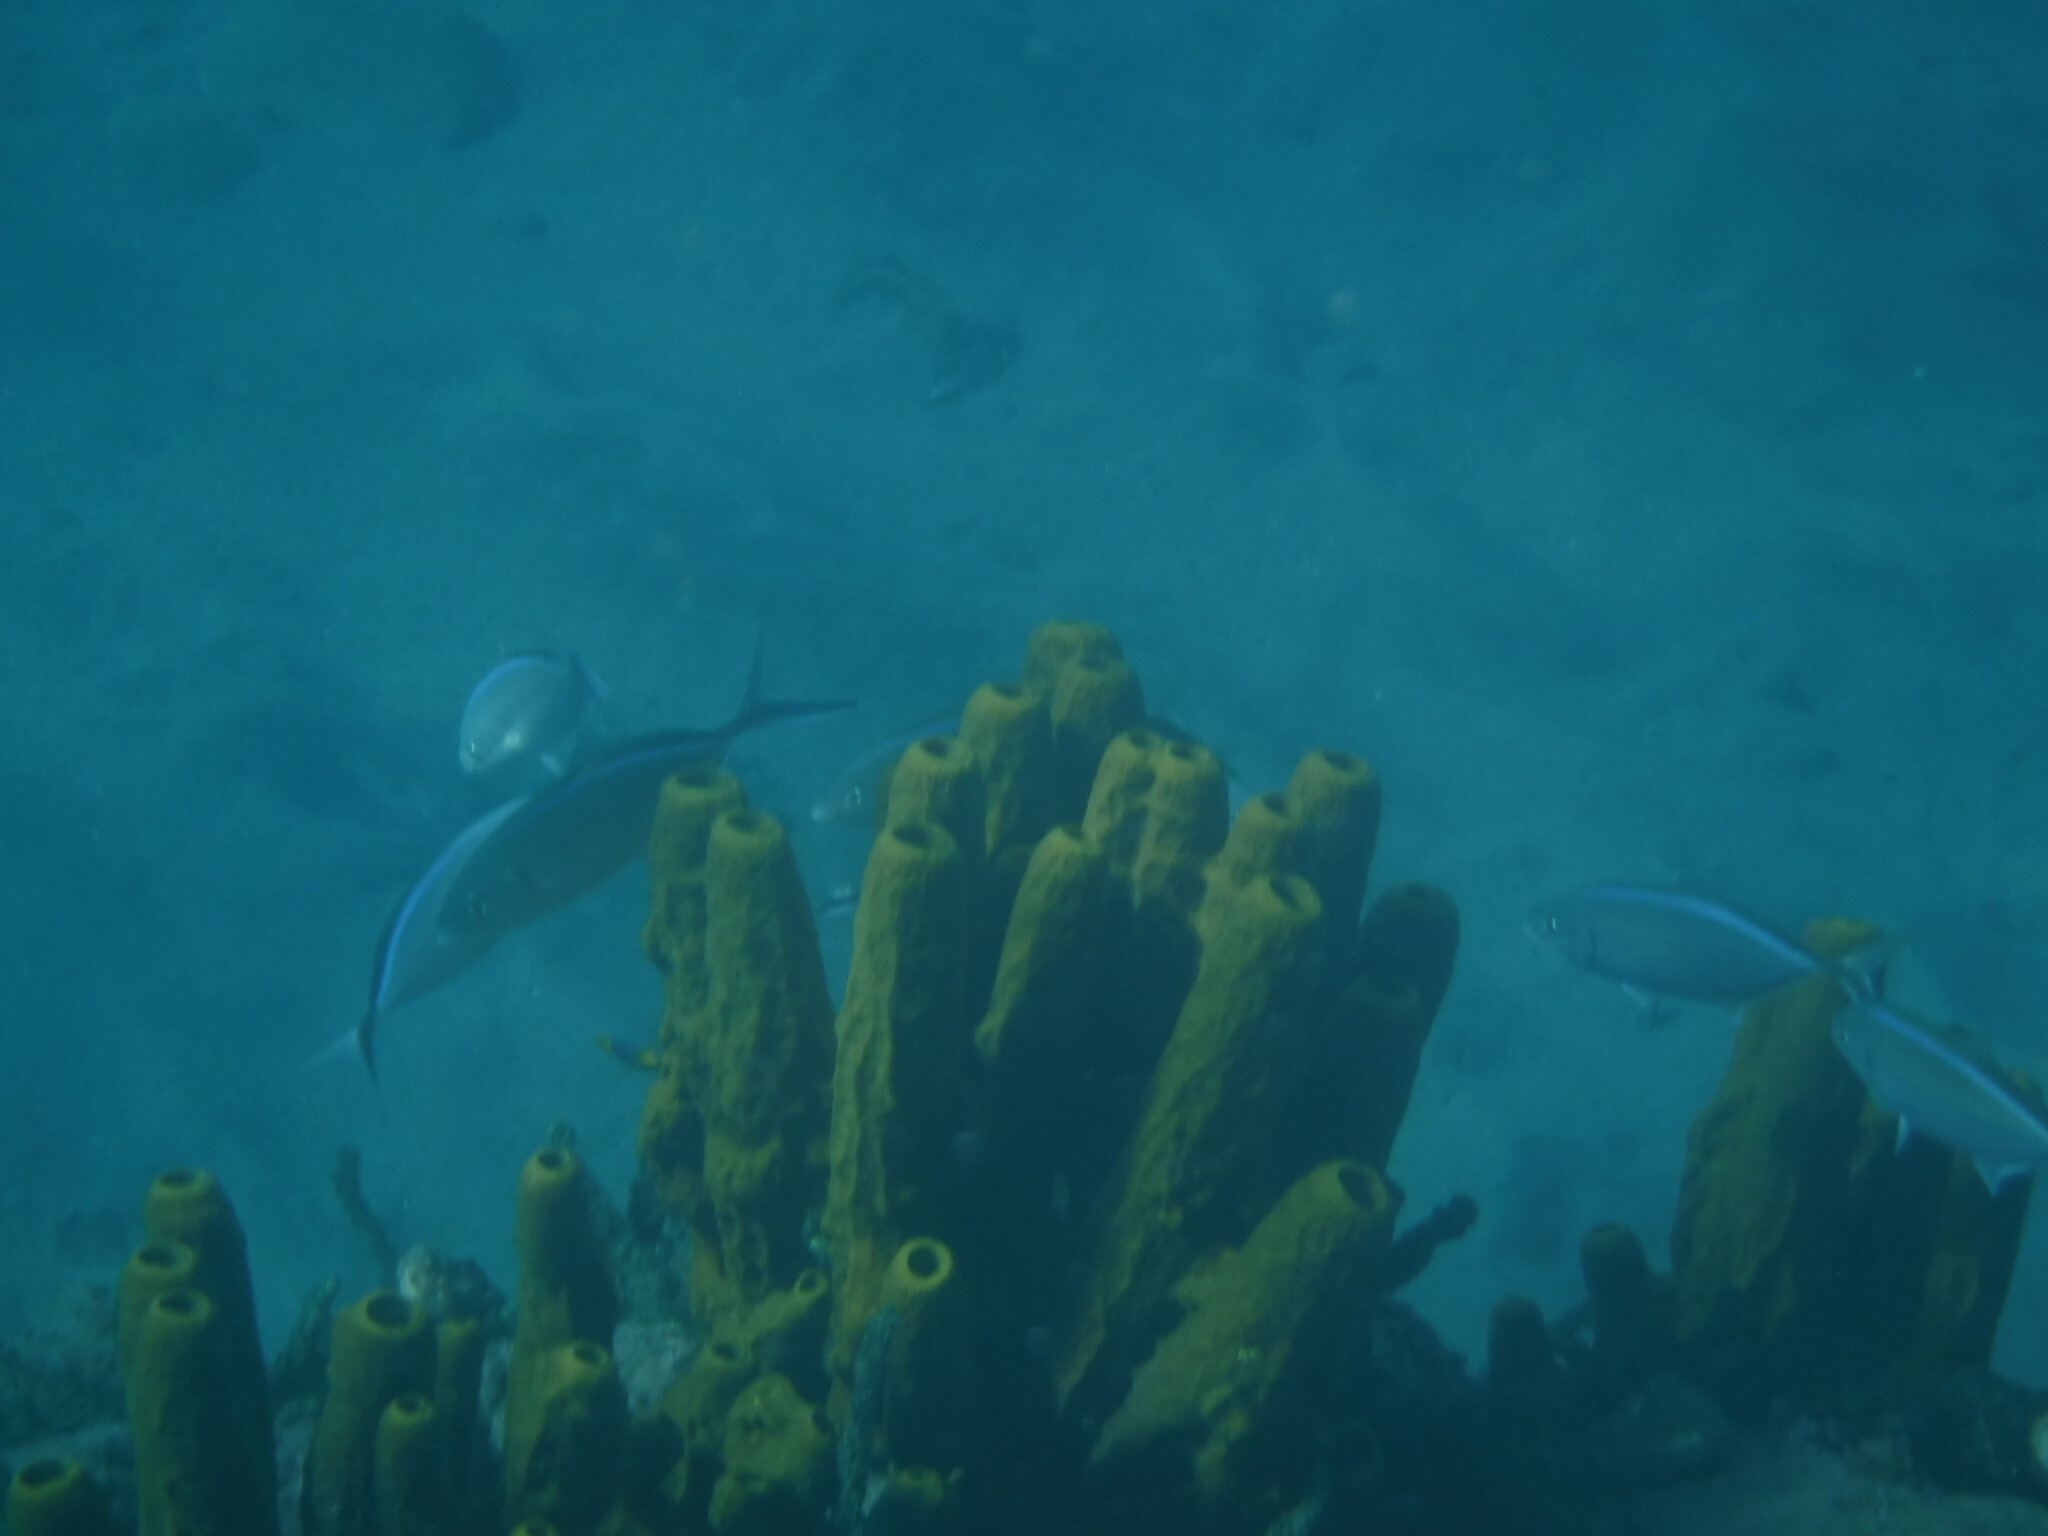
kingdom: Animalia
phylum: Chordata
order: Perciformes
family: Carangidae
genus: Caranx
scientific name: Caranx ruber
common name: Bar jack
